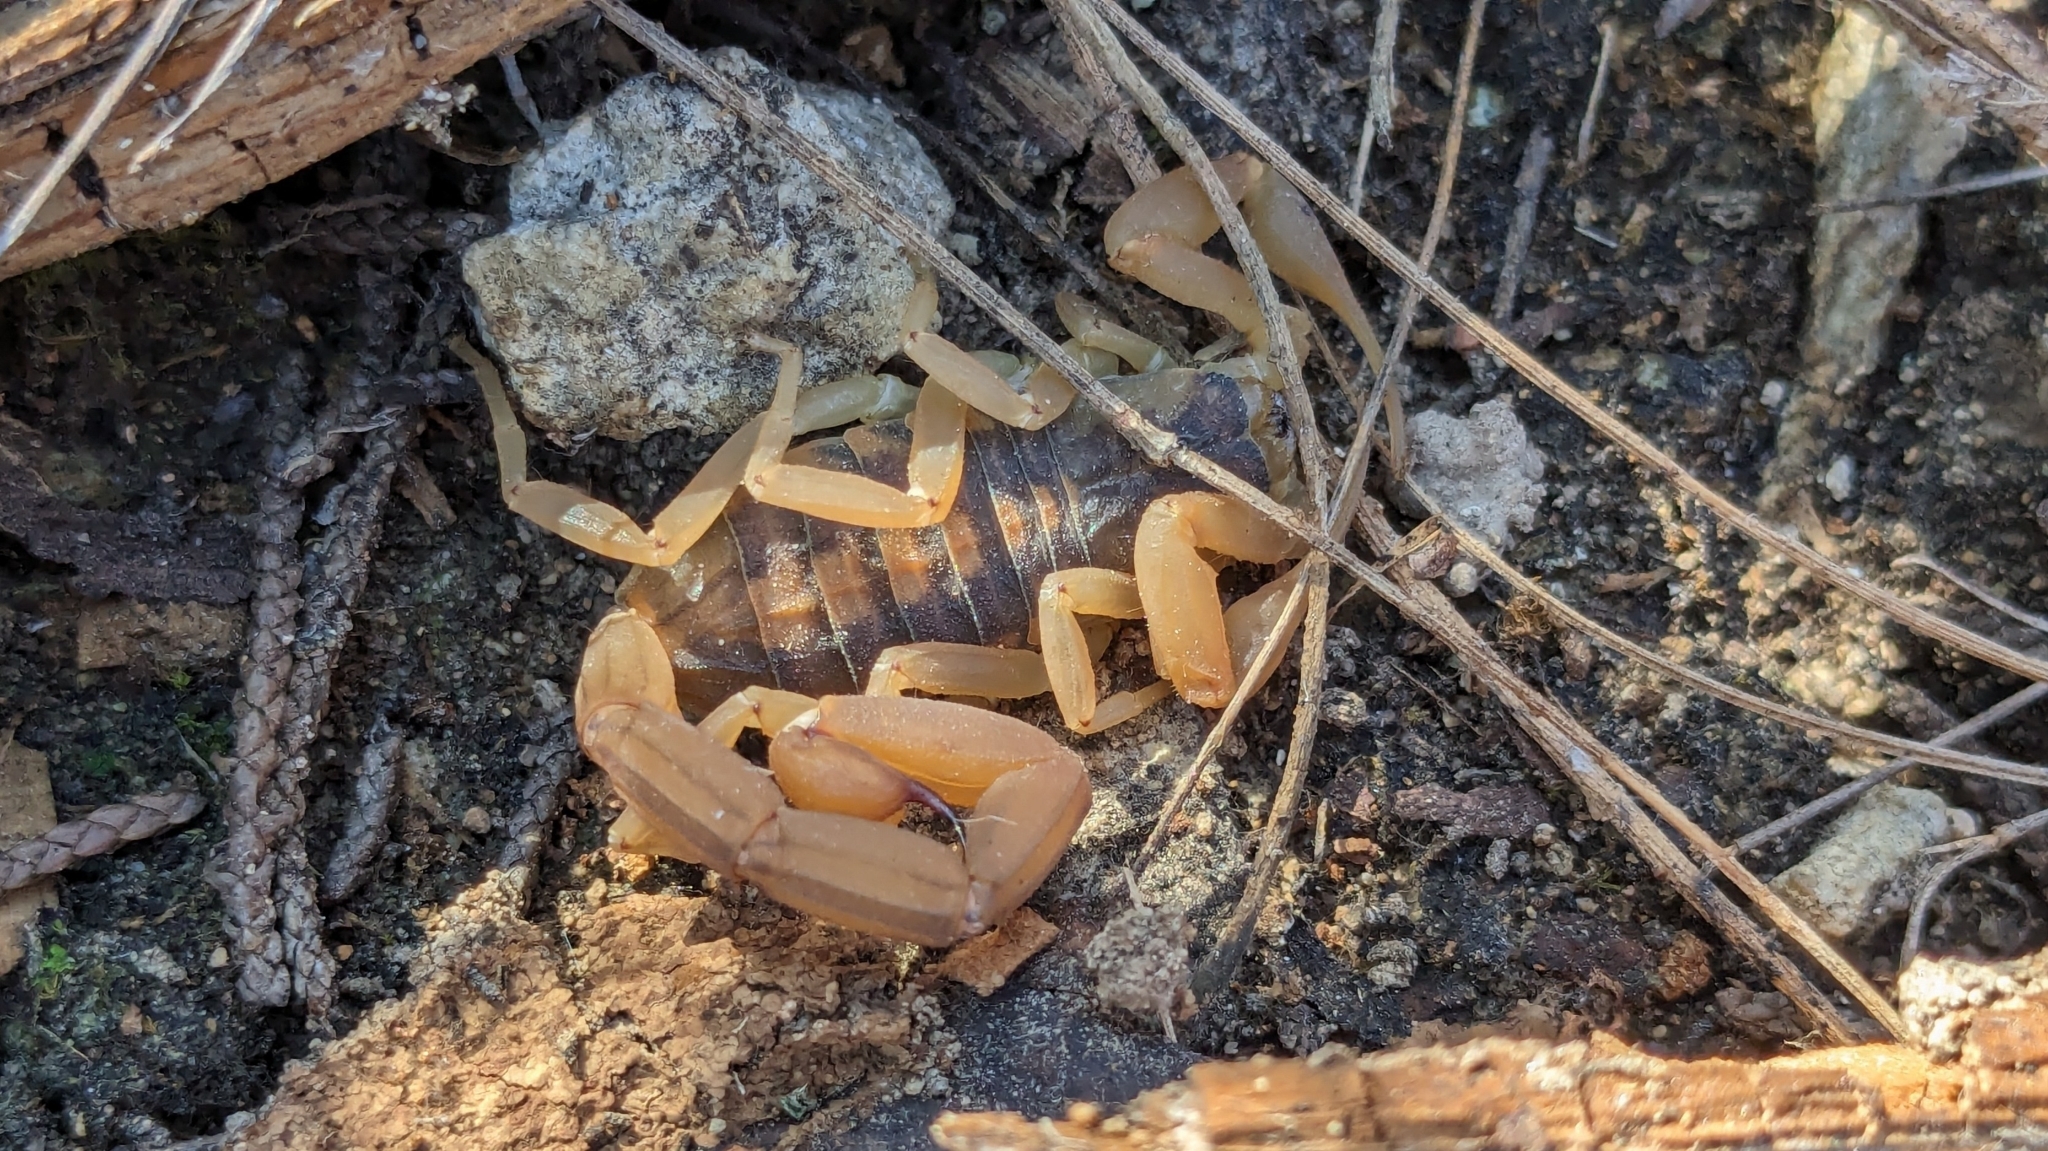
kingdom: Animalia
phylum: Arthropoda
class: Arachnida
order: Scorpiones
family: Buthidae
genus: Centruroides
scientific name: Centruroides vittatus
